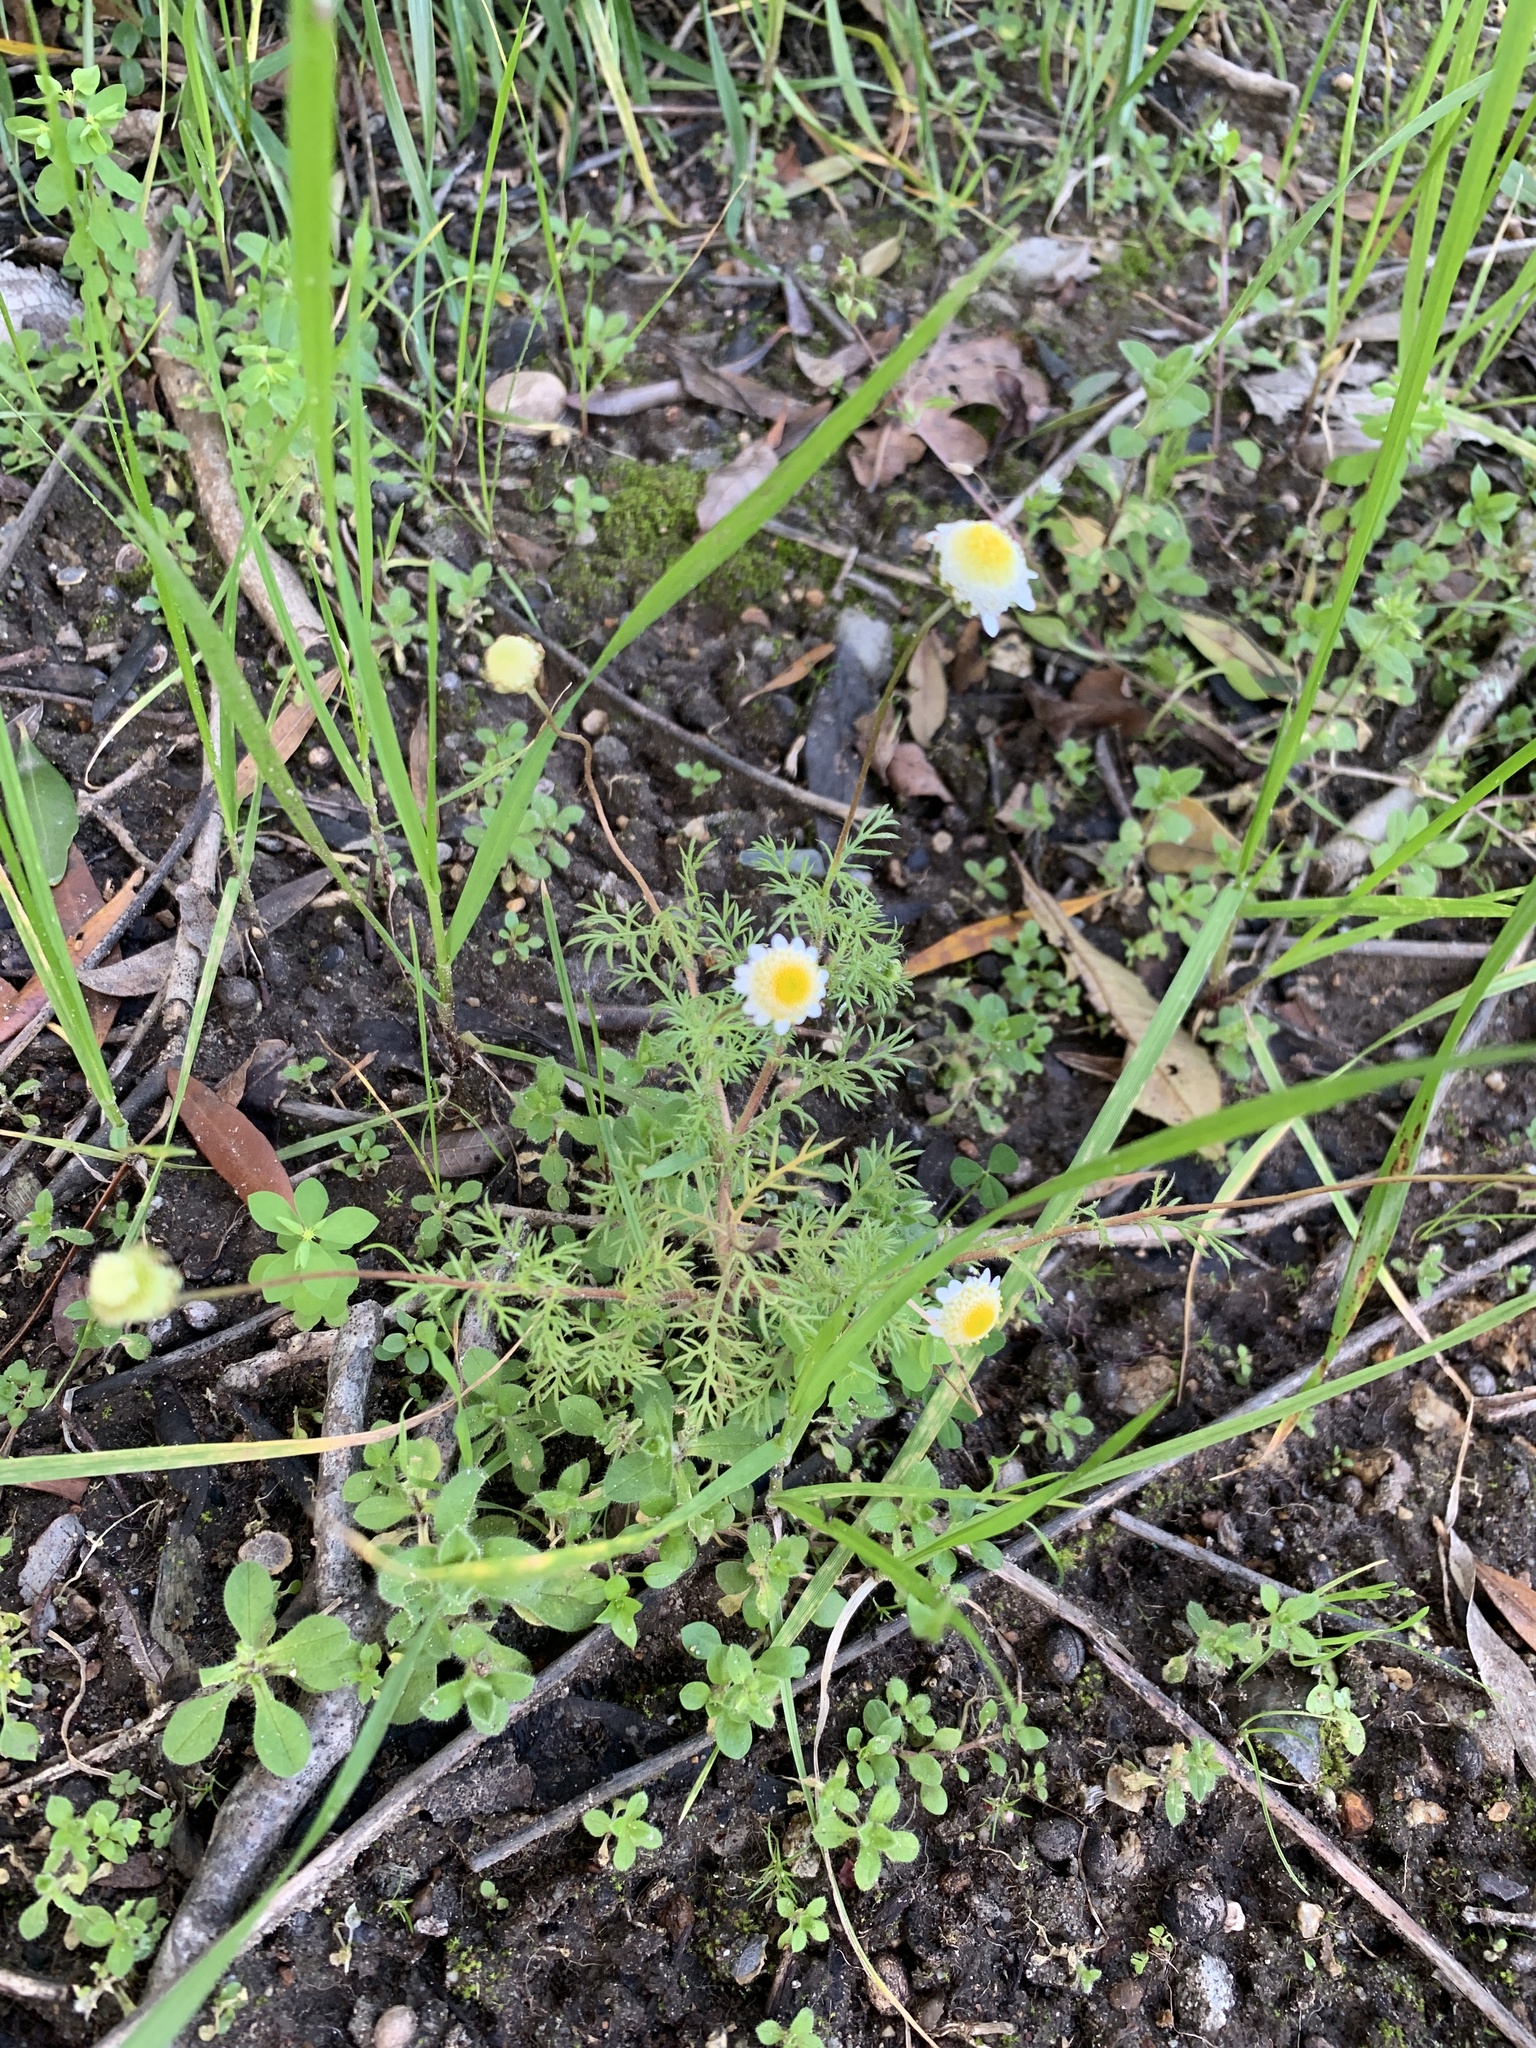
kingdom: Plantae
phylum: Tracheophyta
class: Magnoliopsida
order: Asterales
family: Asteraceae
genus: Cotula
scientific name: Cotula turbinata
